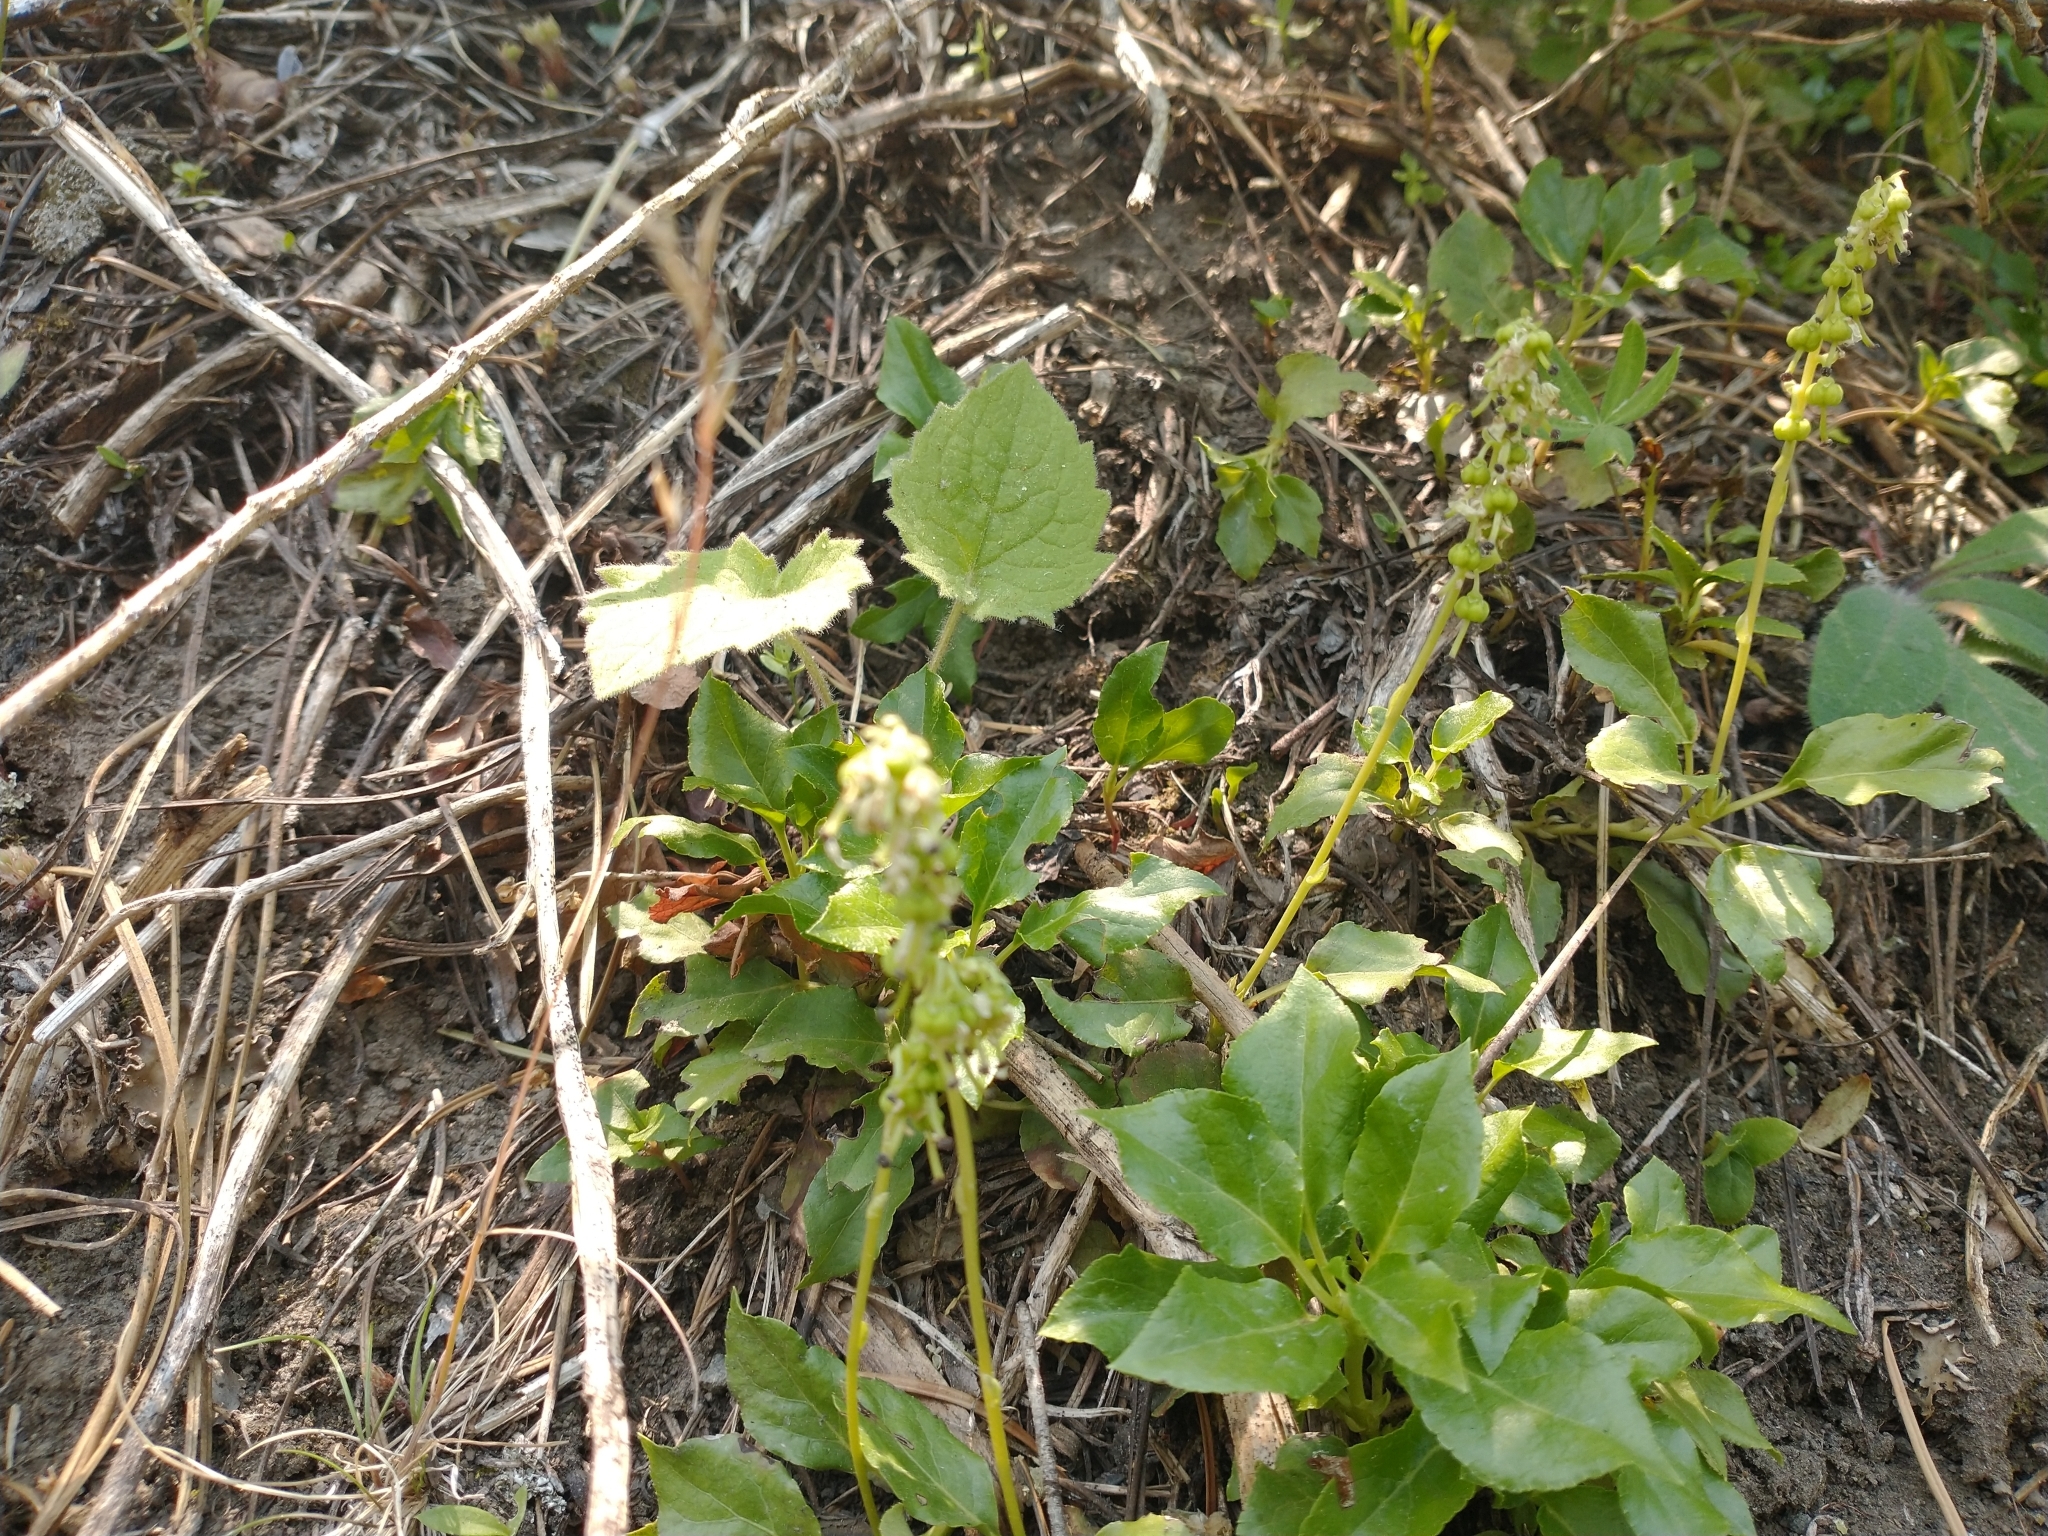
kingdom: Plantae
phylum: Tracheophyta
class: Magnoliopsida
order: Ericales
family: Ericaceae
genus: Orthilia
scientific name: Orthilia secunda
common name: One-sided orthilia
